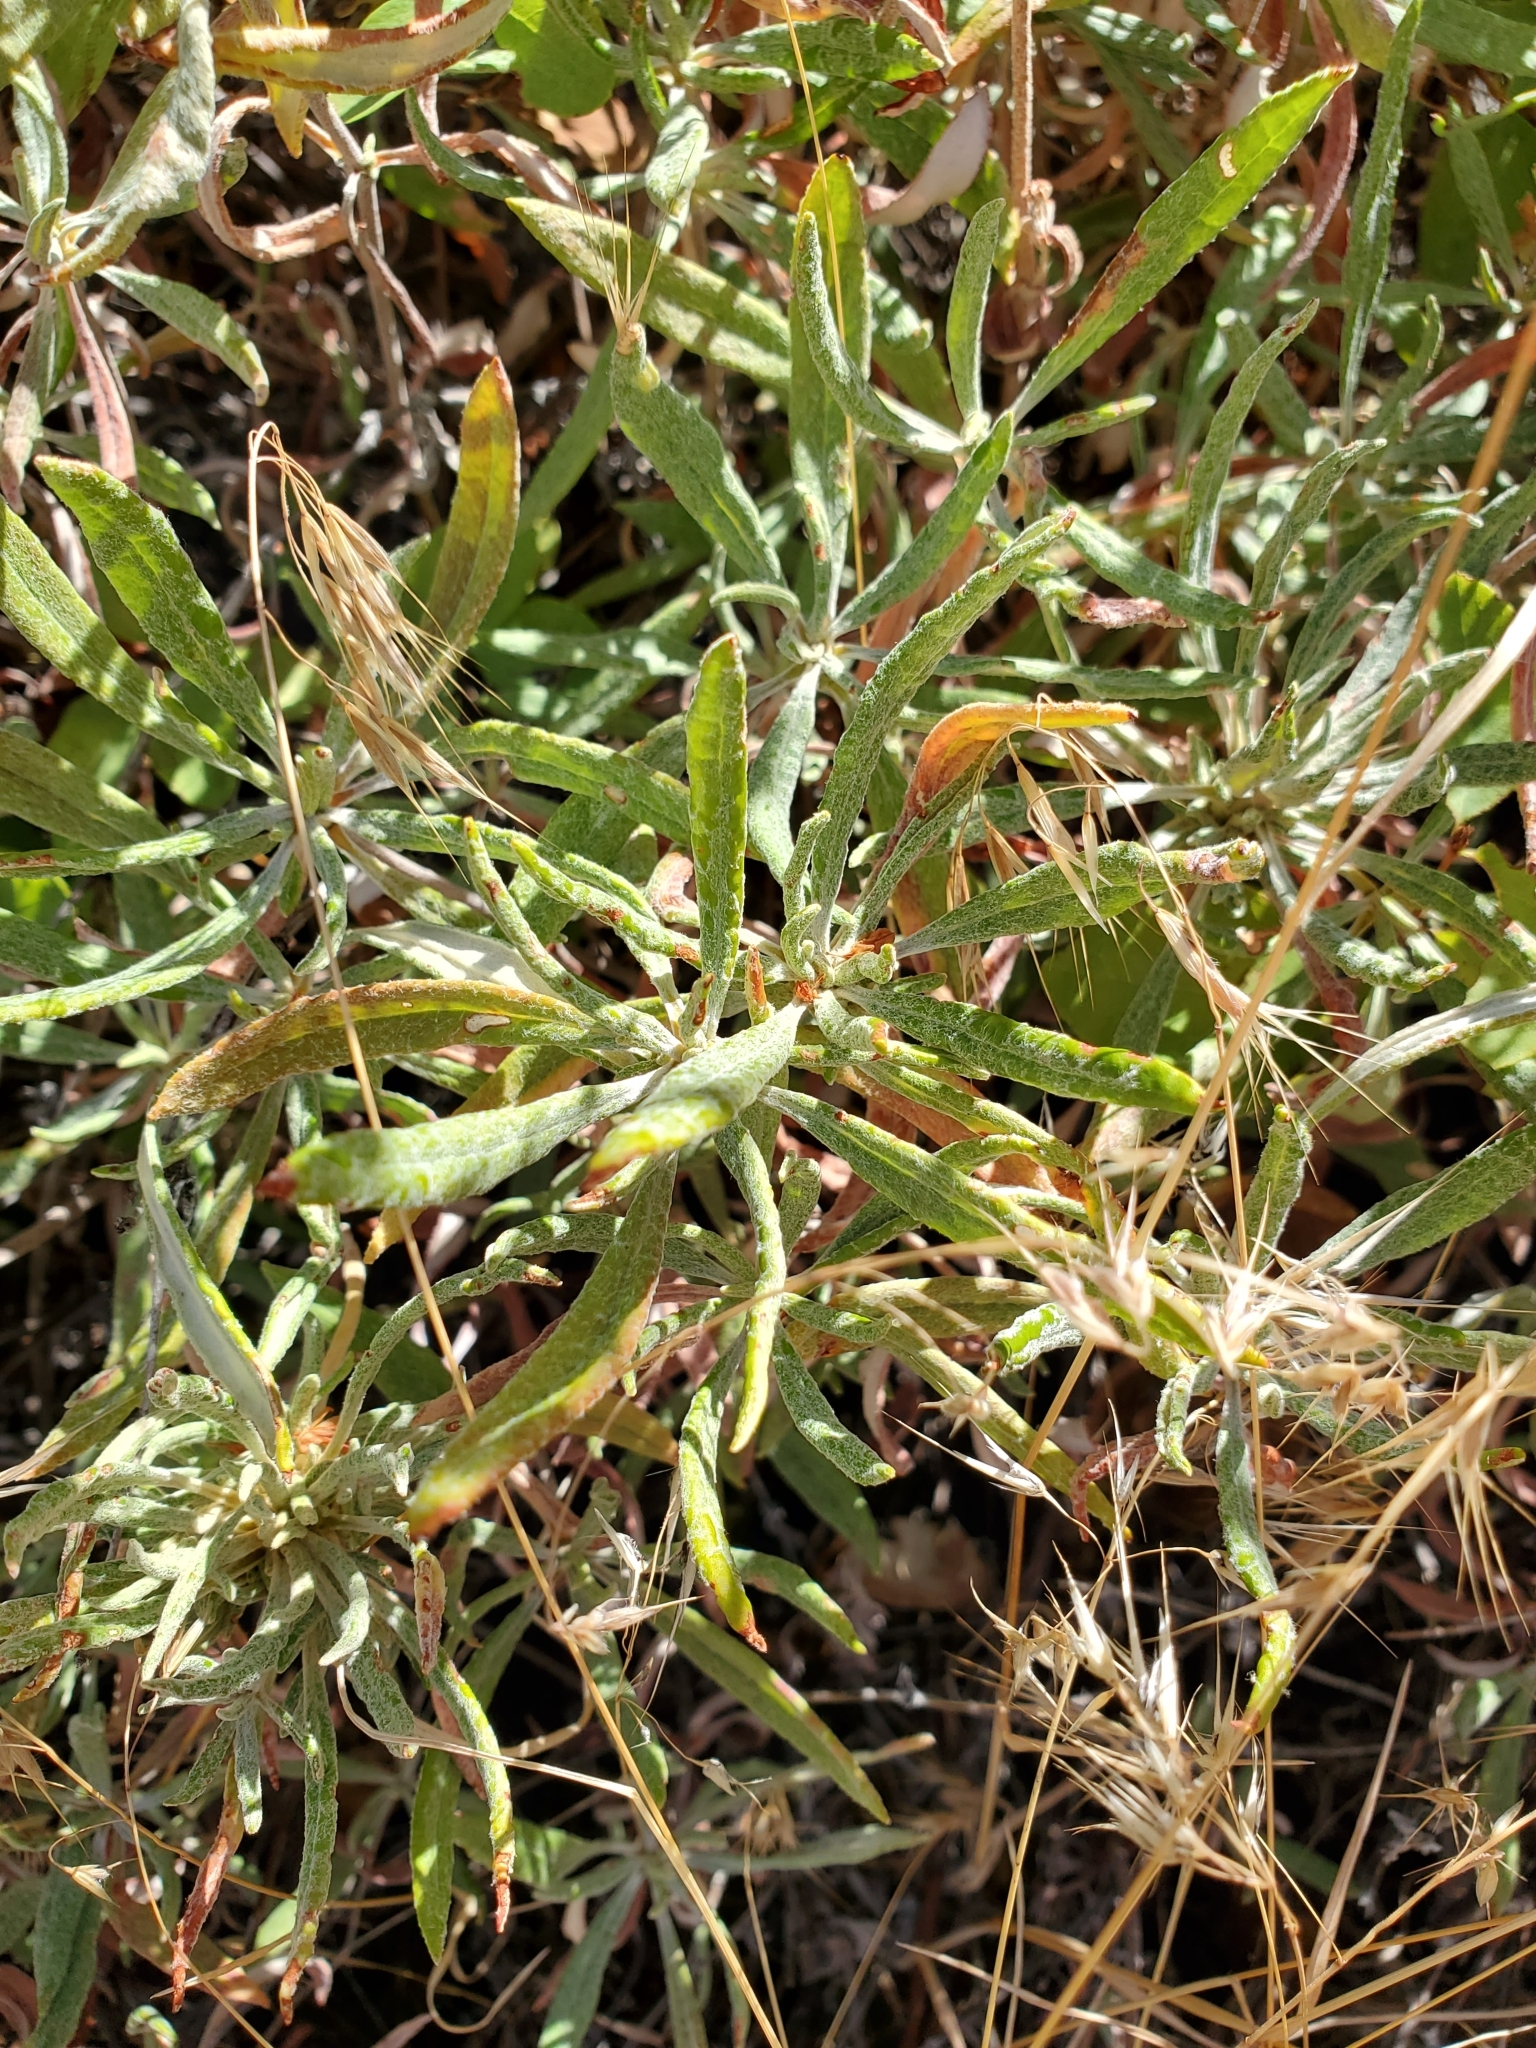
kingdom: Plantae
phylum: Tracheophyta
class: Magnoliopsida
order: Caryophyllales
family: Polygonaceae
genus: Eriogonum
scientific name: Eriogonum heracleoides
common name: Wyeth's buckwheat
